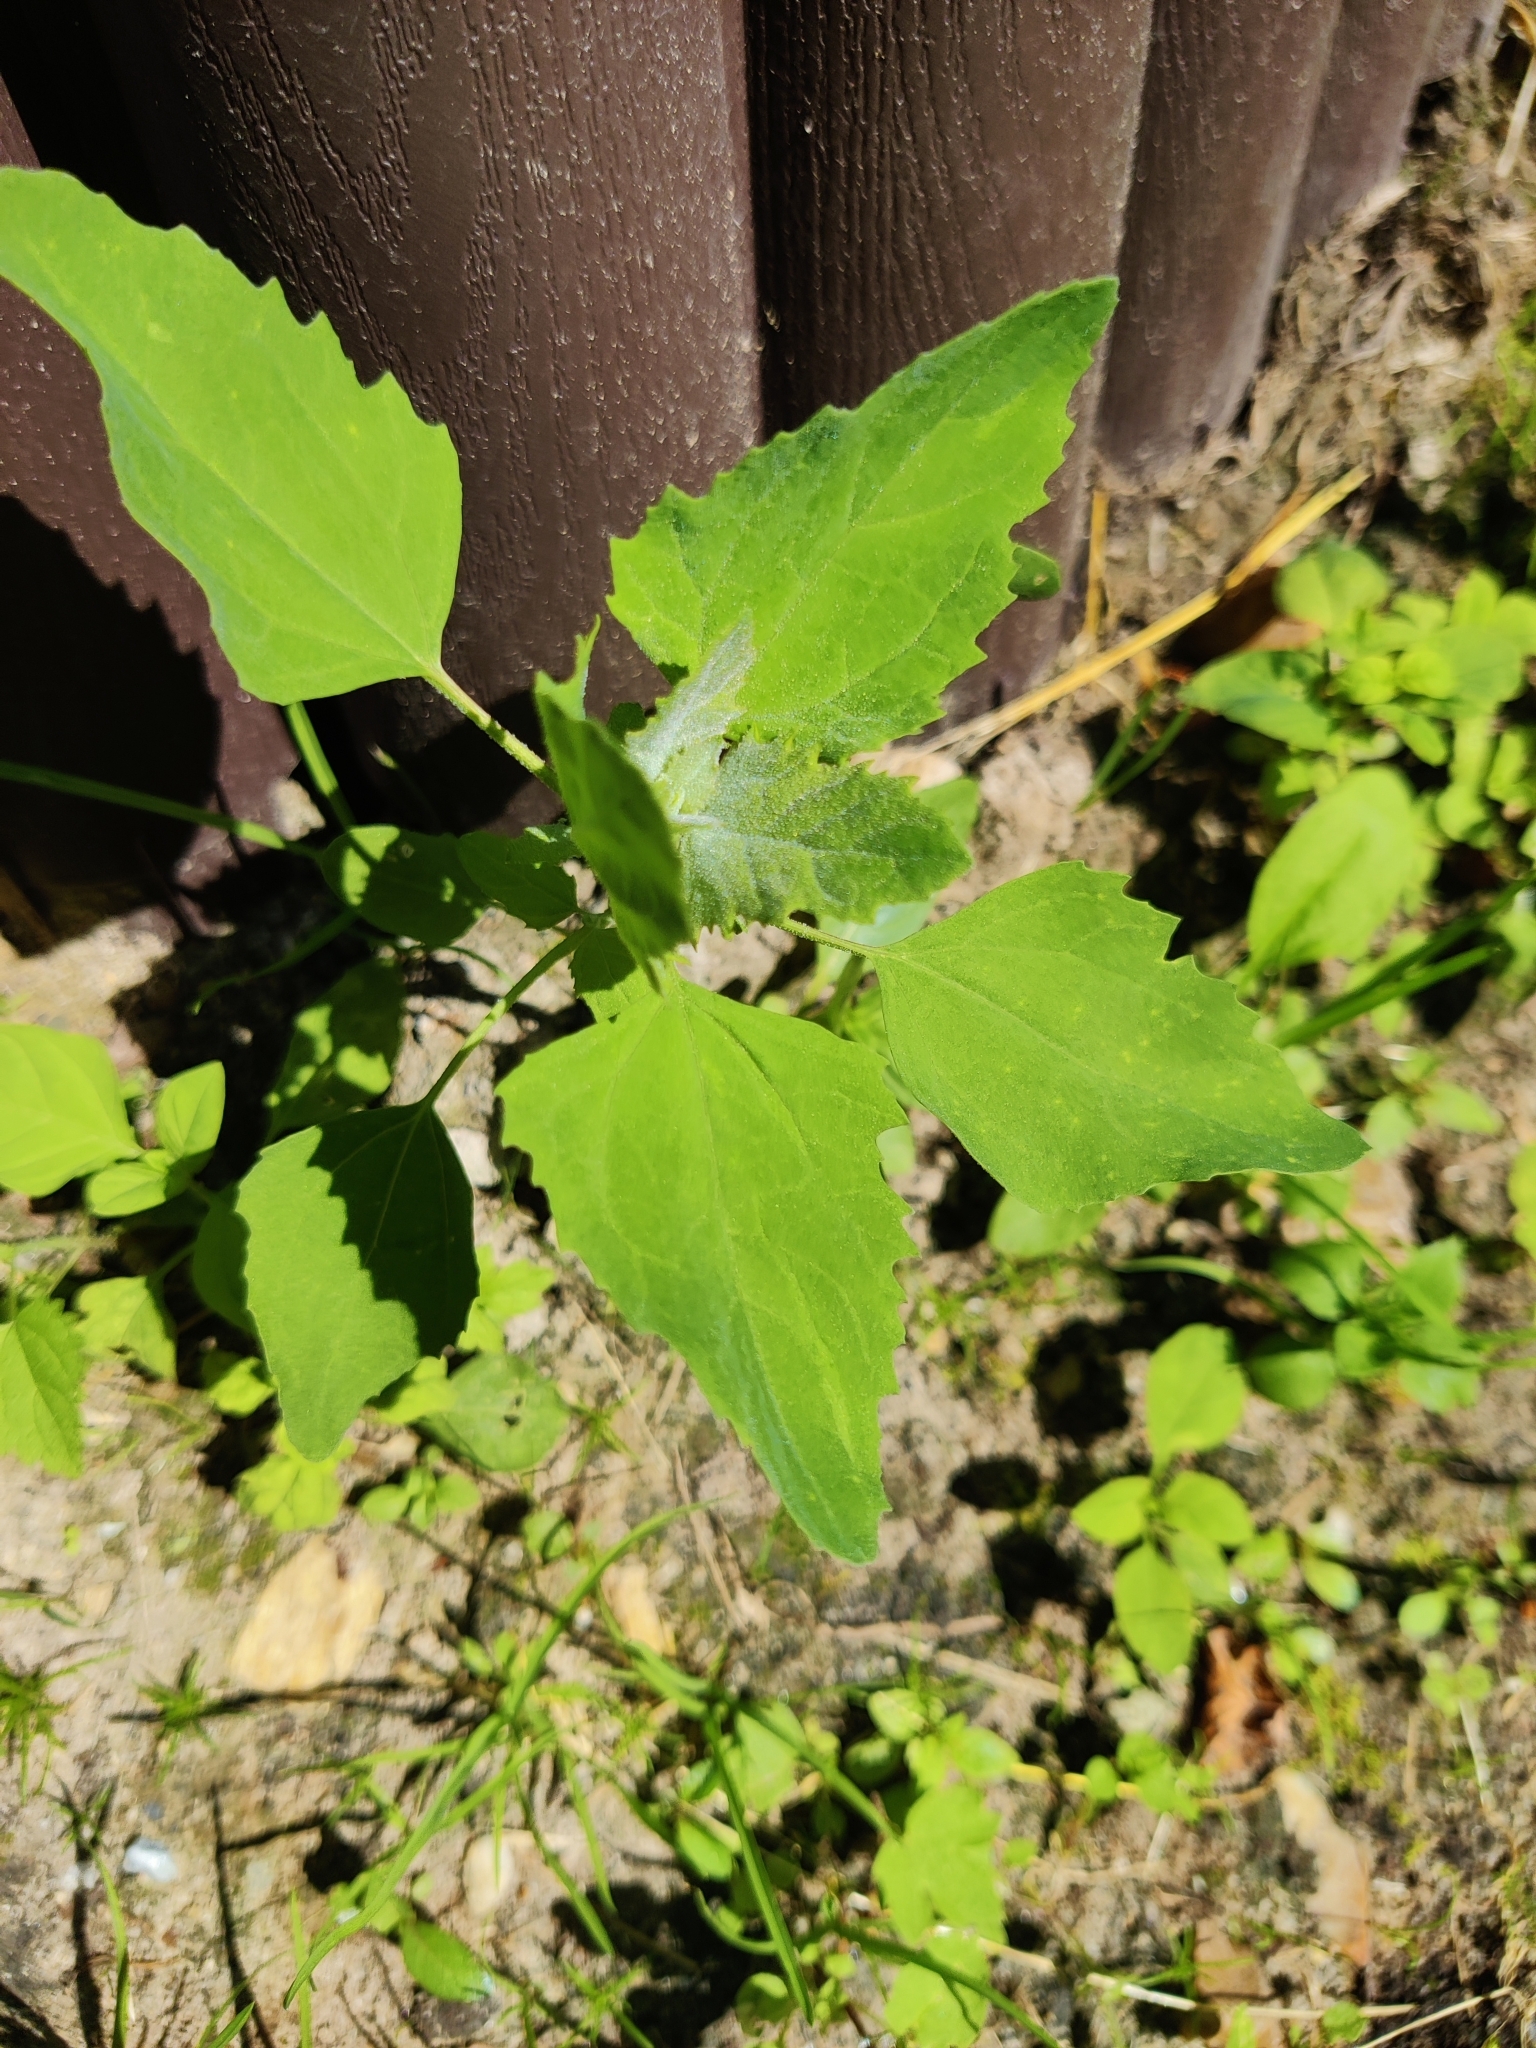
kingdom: Plantae
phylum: Tracheophyta
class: Magnoliopsida
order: Caryophyllales
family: Amaranthaceae
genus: Chenopodium
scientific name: Chenopodium album
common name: Fat-hen
